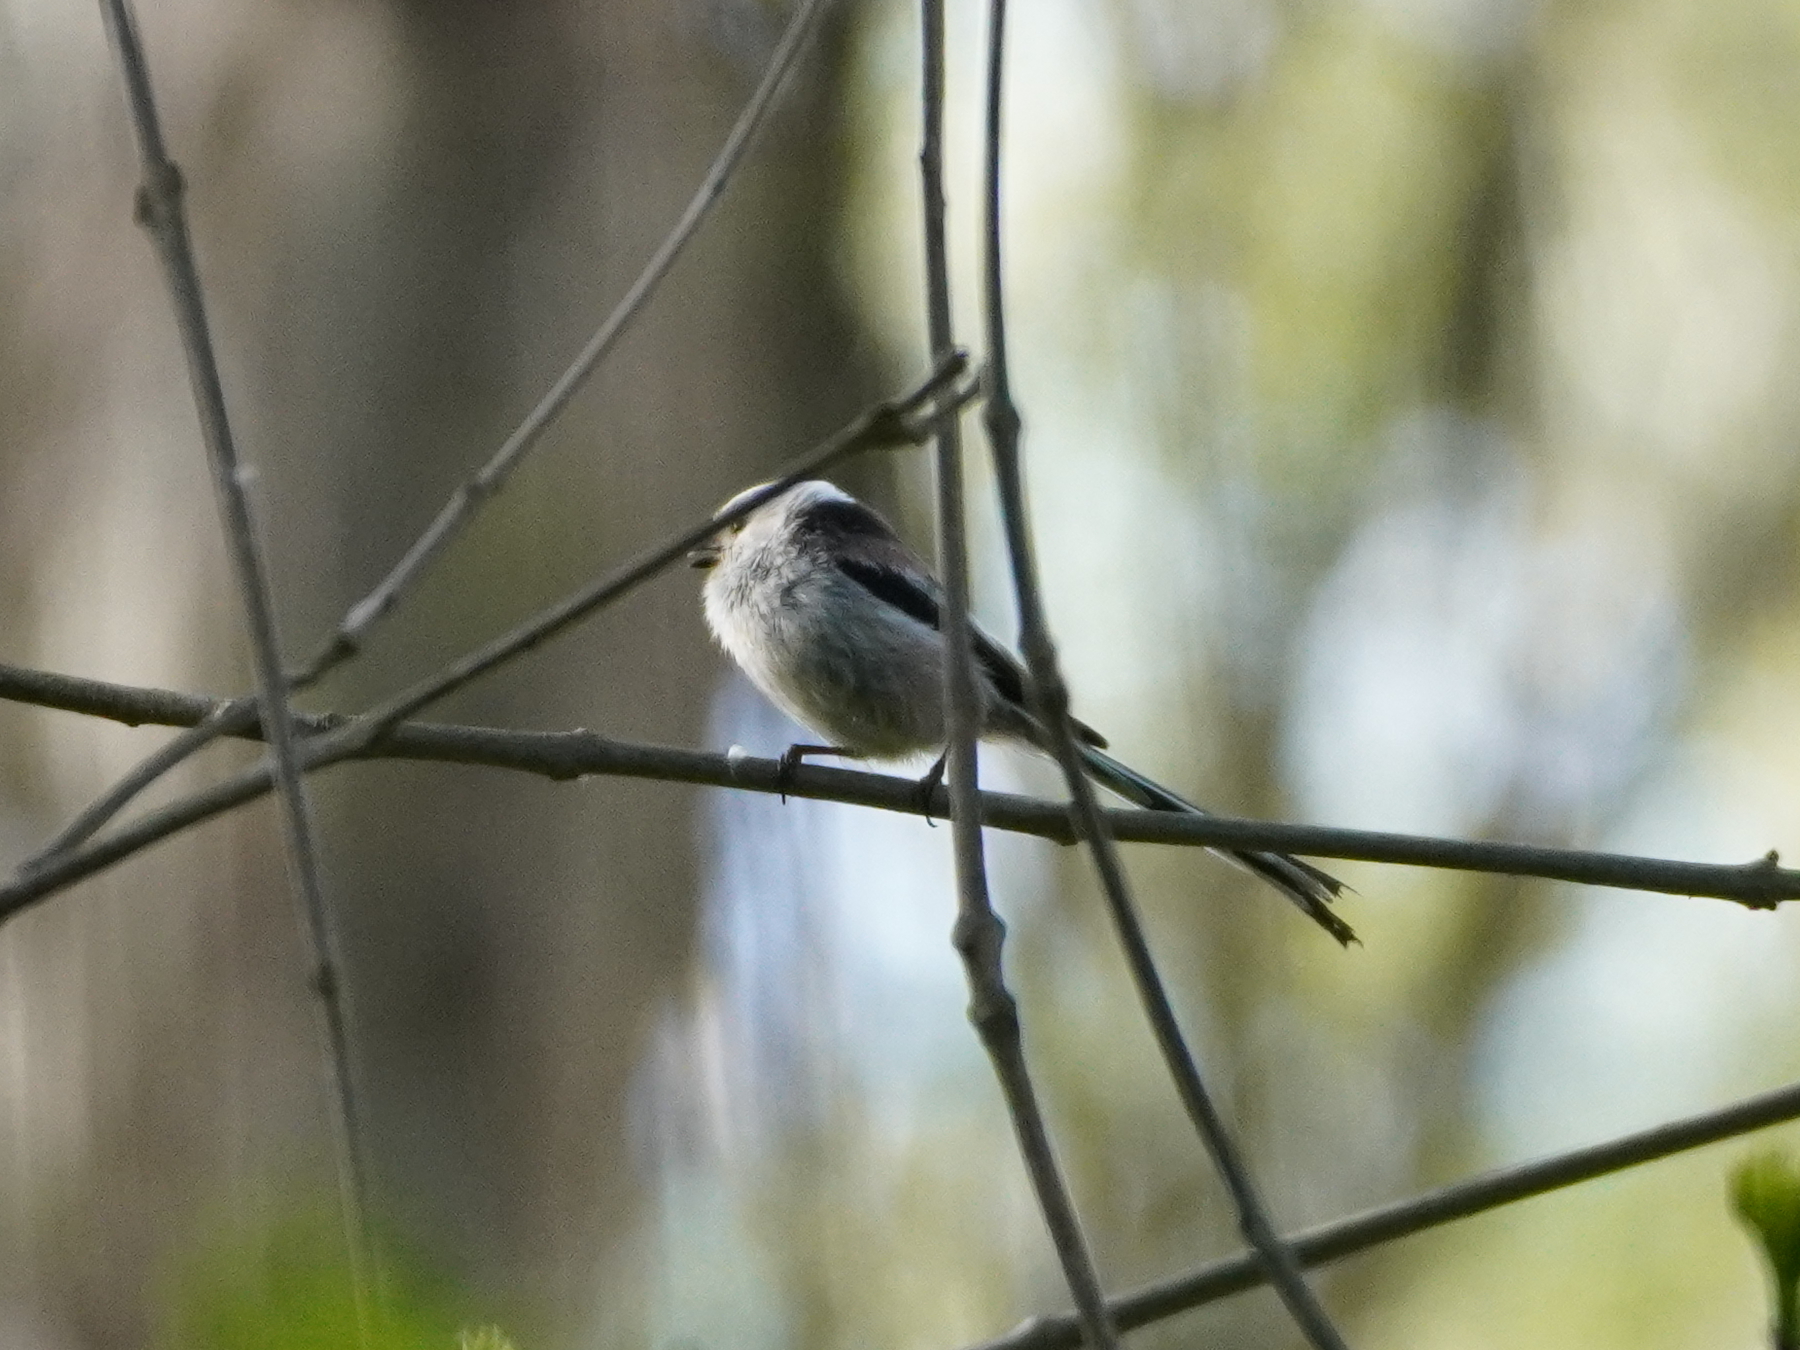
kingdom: Animalia
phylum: Chordata
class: Aves
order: Passeriformes
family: Aegithalidae
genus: Aegithalos
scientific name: Aegithalos caudatus
